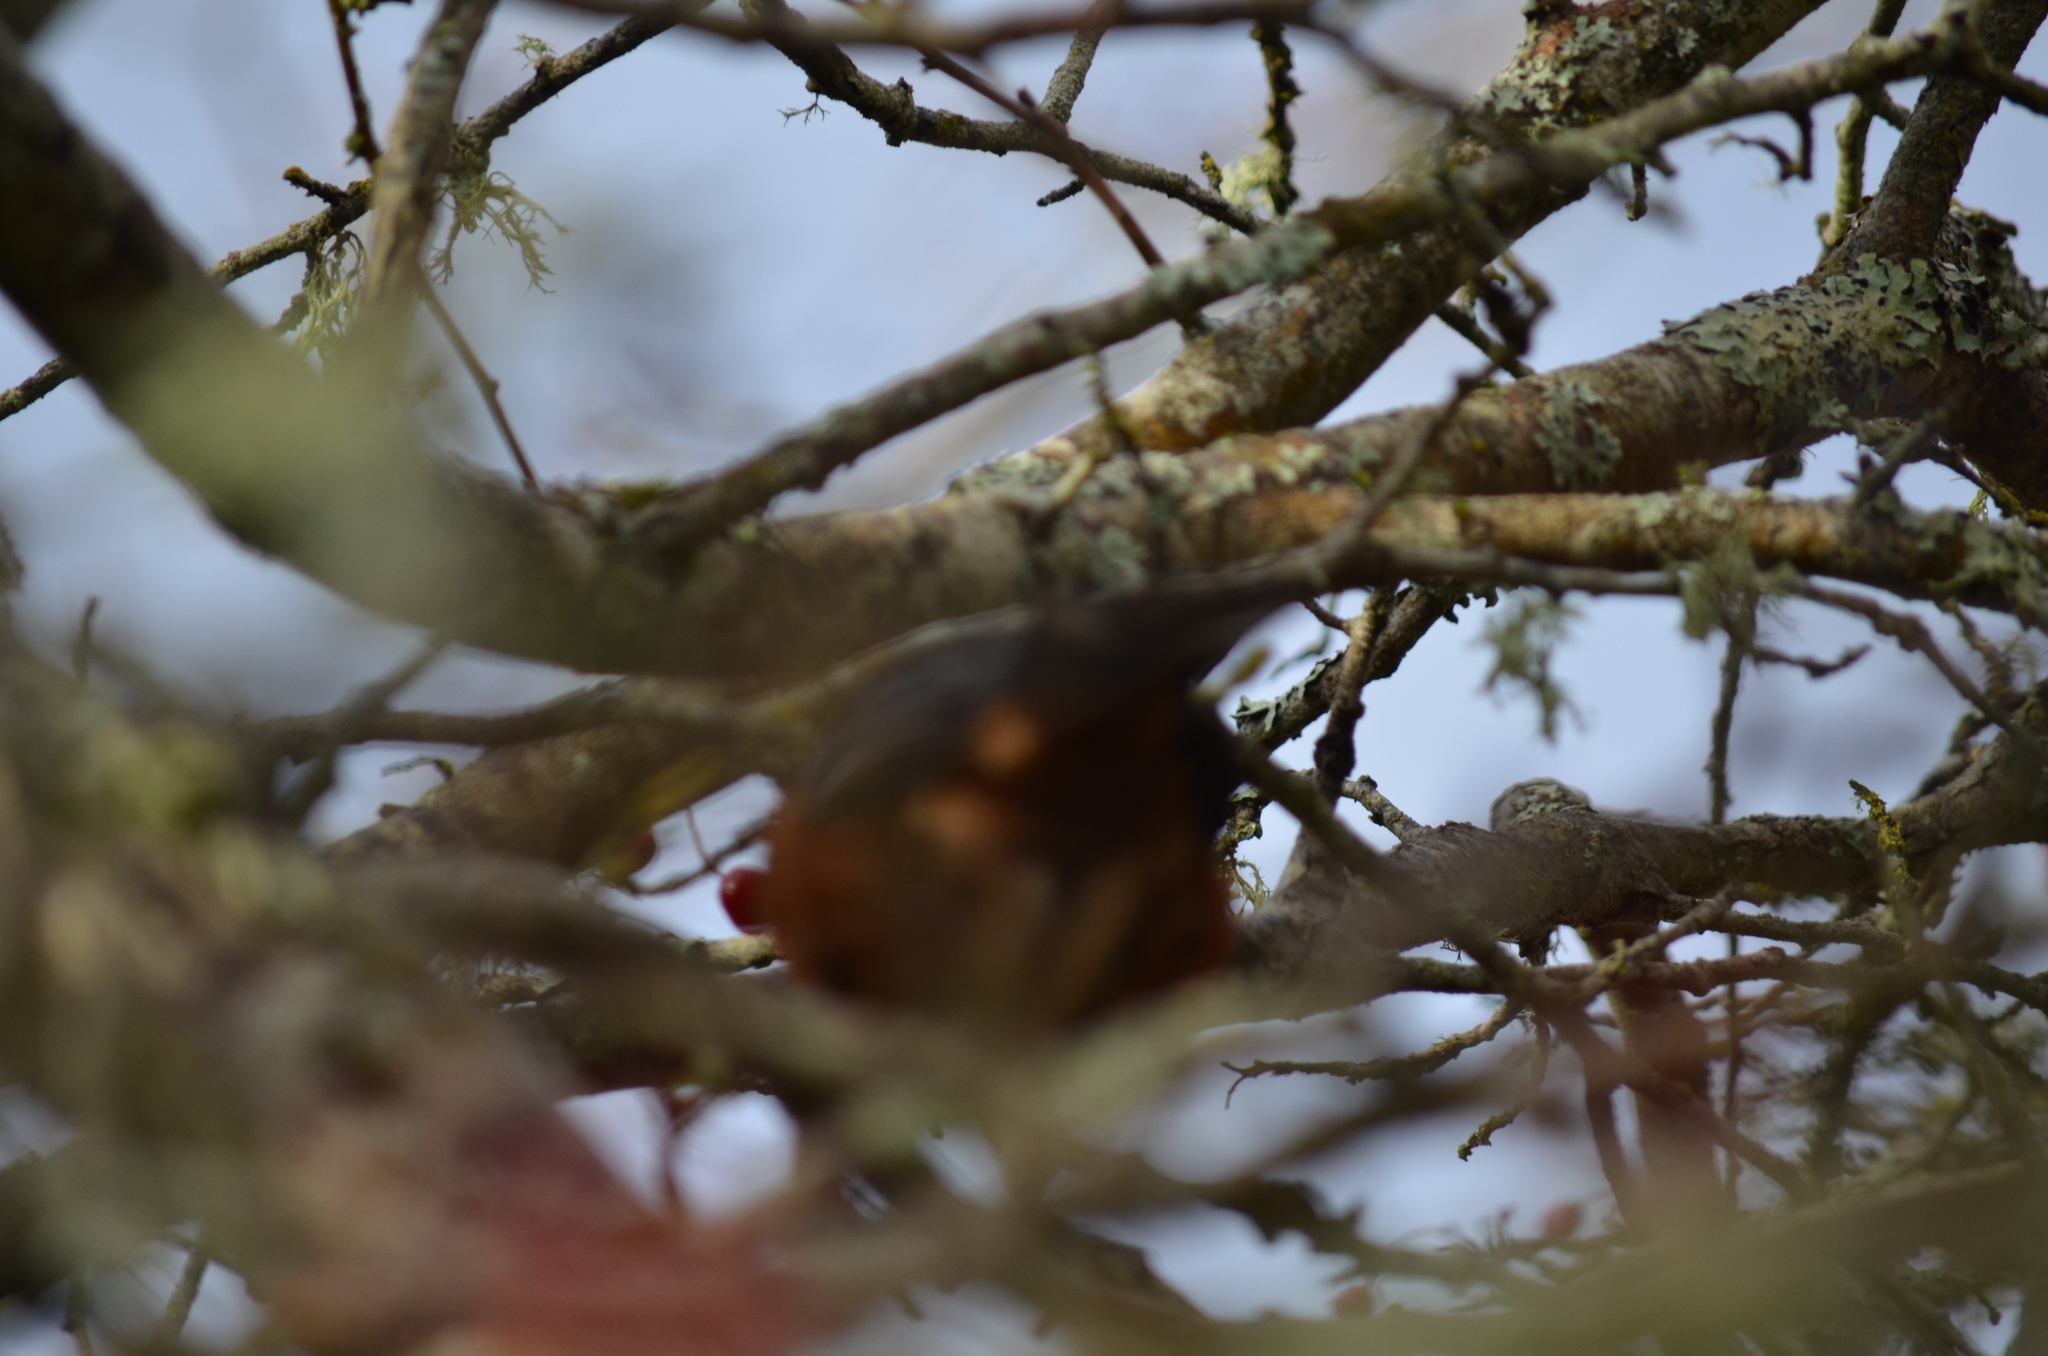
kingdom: Animalia
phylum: Chordata
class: Aves
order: Passeriformes
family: Passerellidae
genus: Pipilo
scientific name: Pipilo maculatus
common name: Spotted towhee
